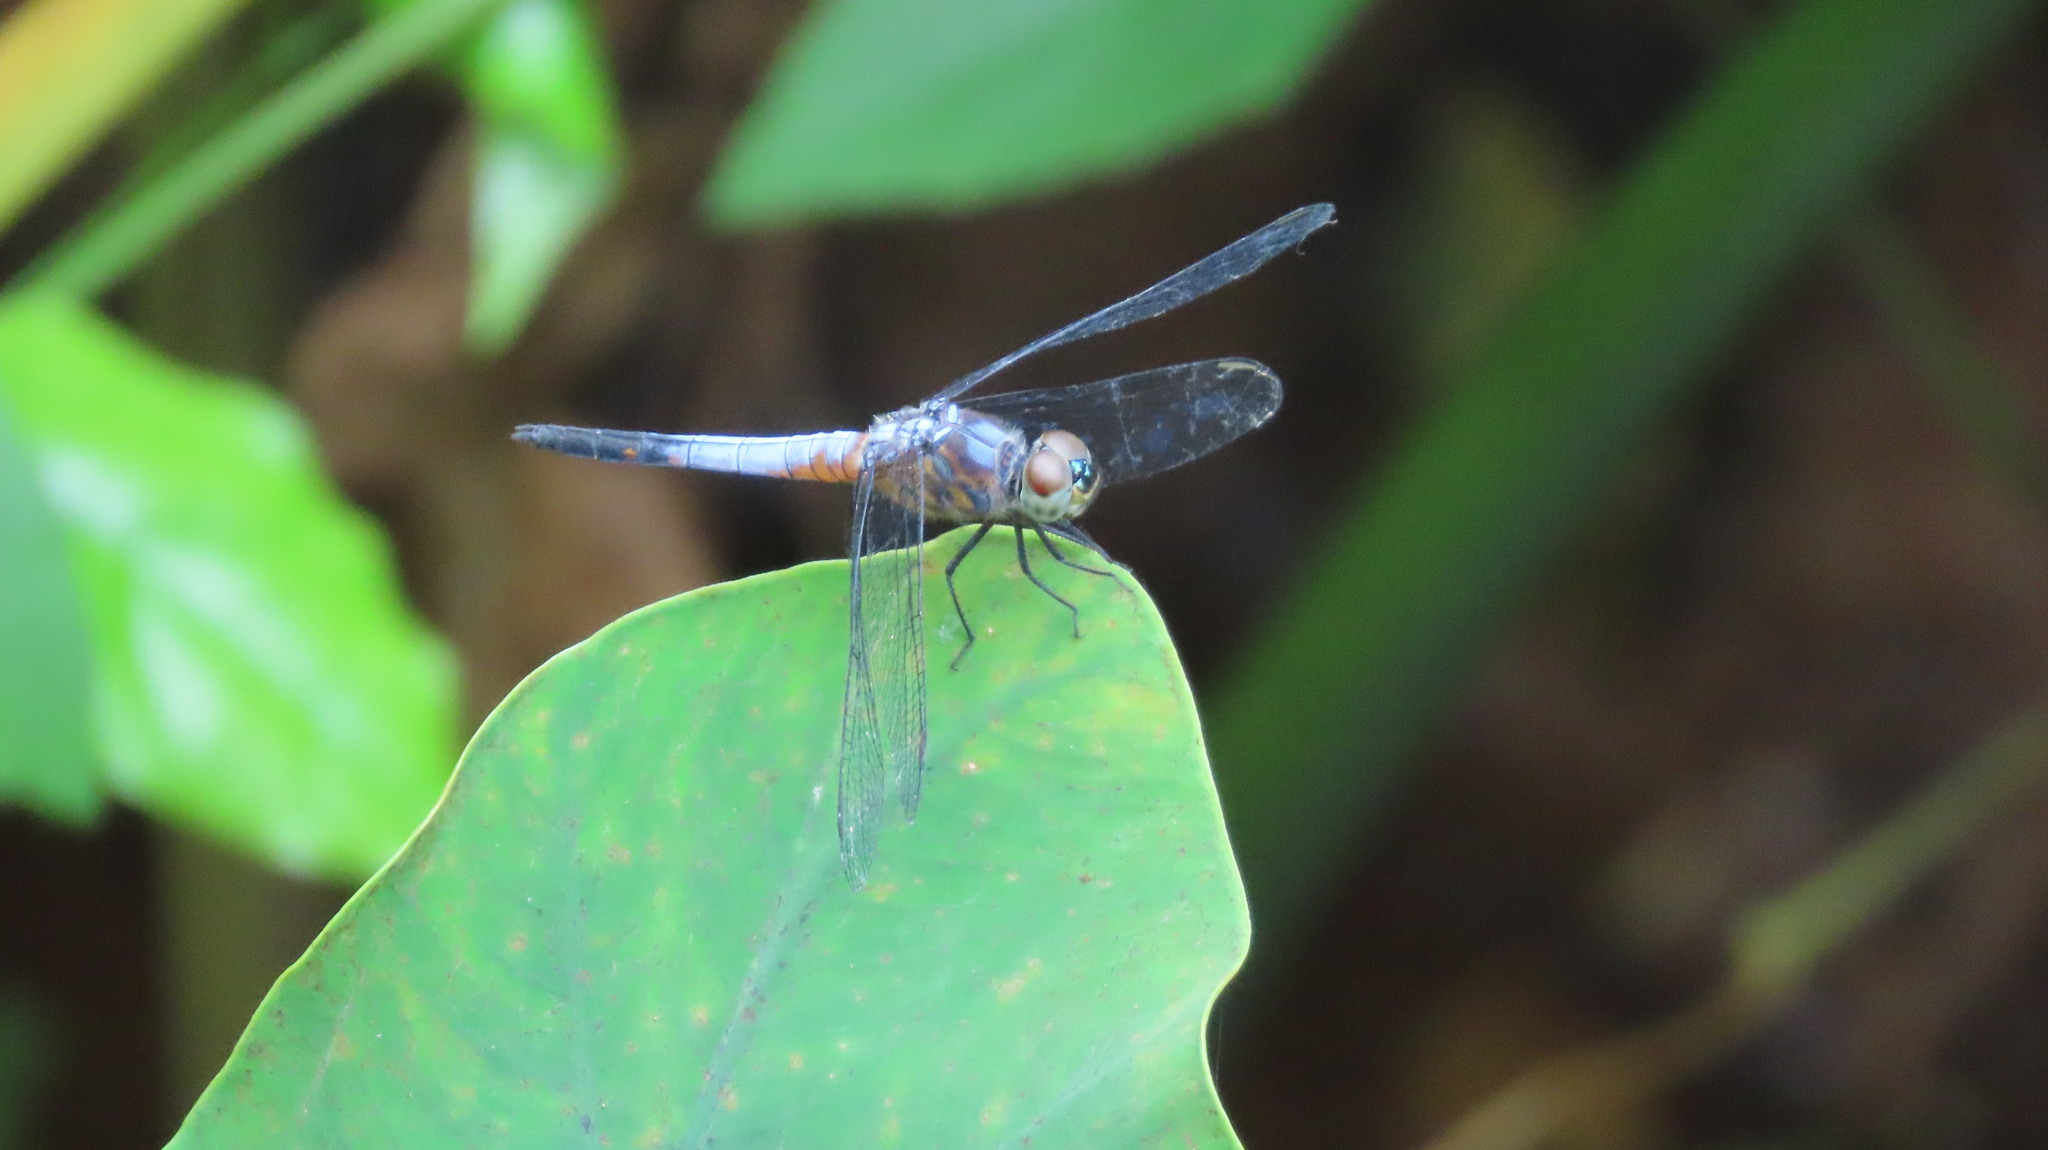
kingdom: Animalia
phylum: Arthropoda
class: Insecta
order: Odonata
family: Libellulidae
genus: Brachydiplax
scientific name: Brachydiplax chalybea
